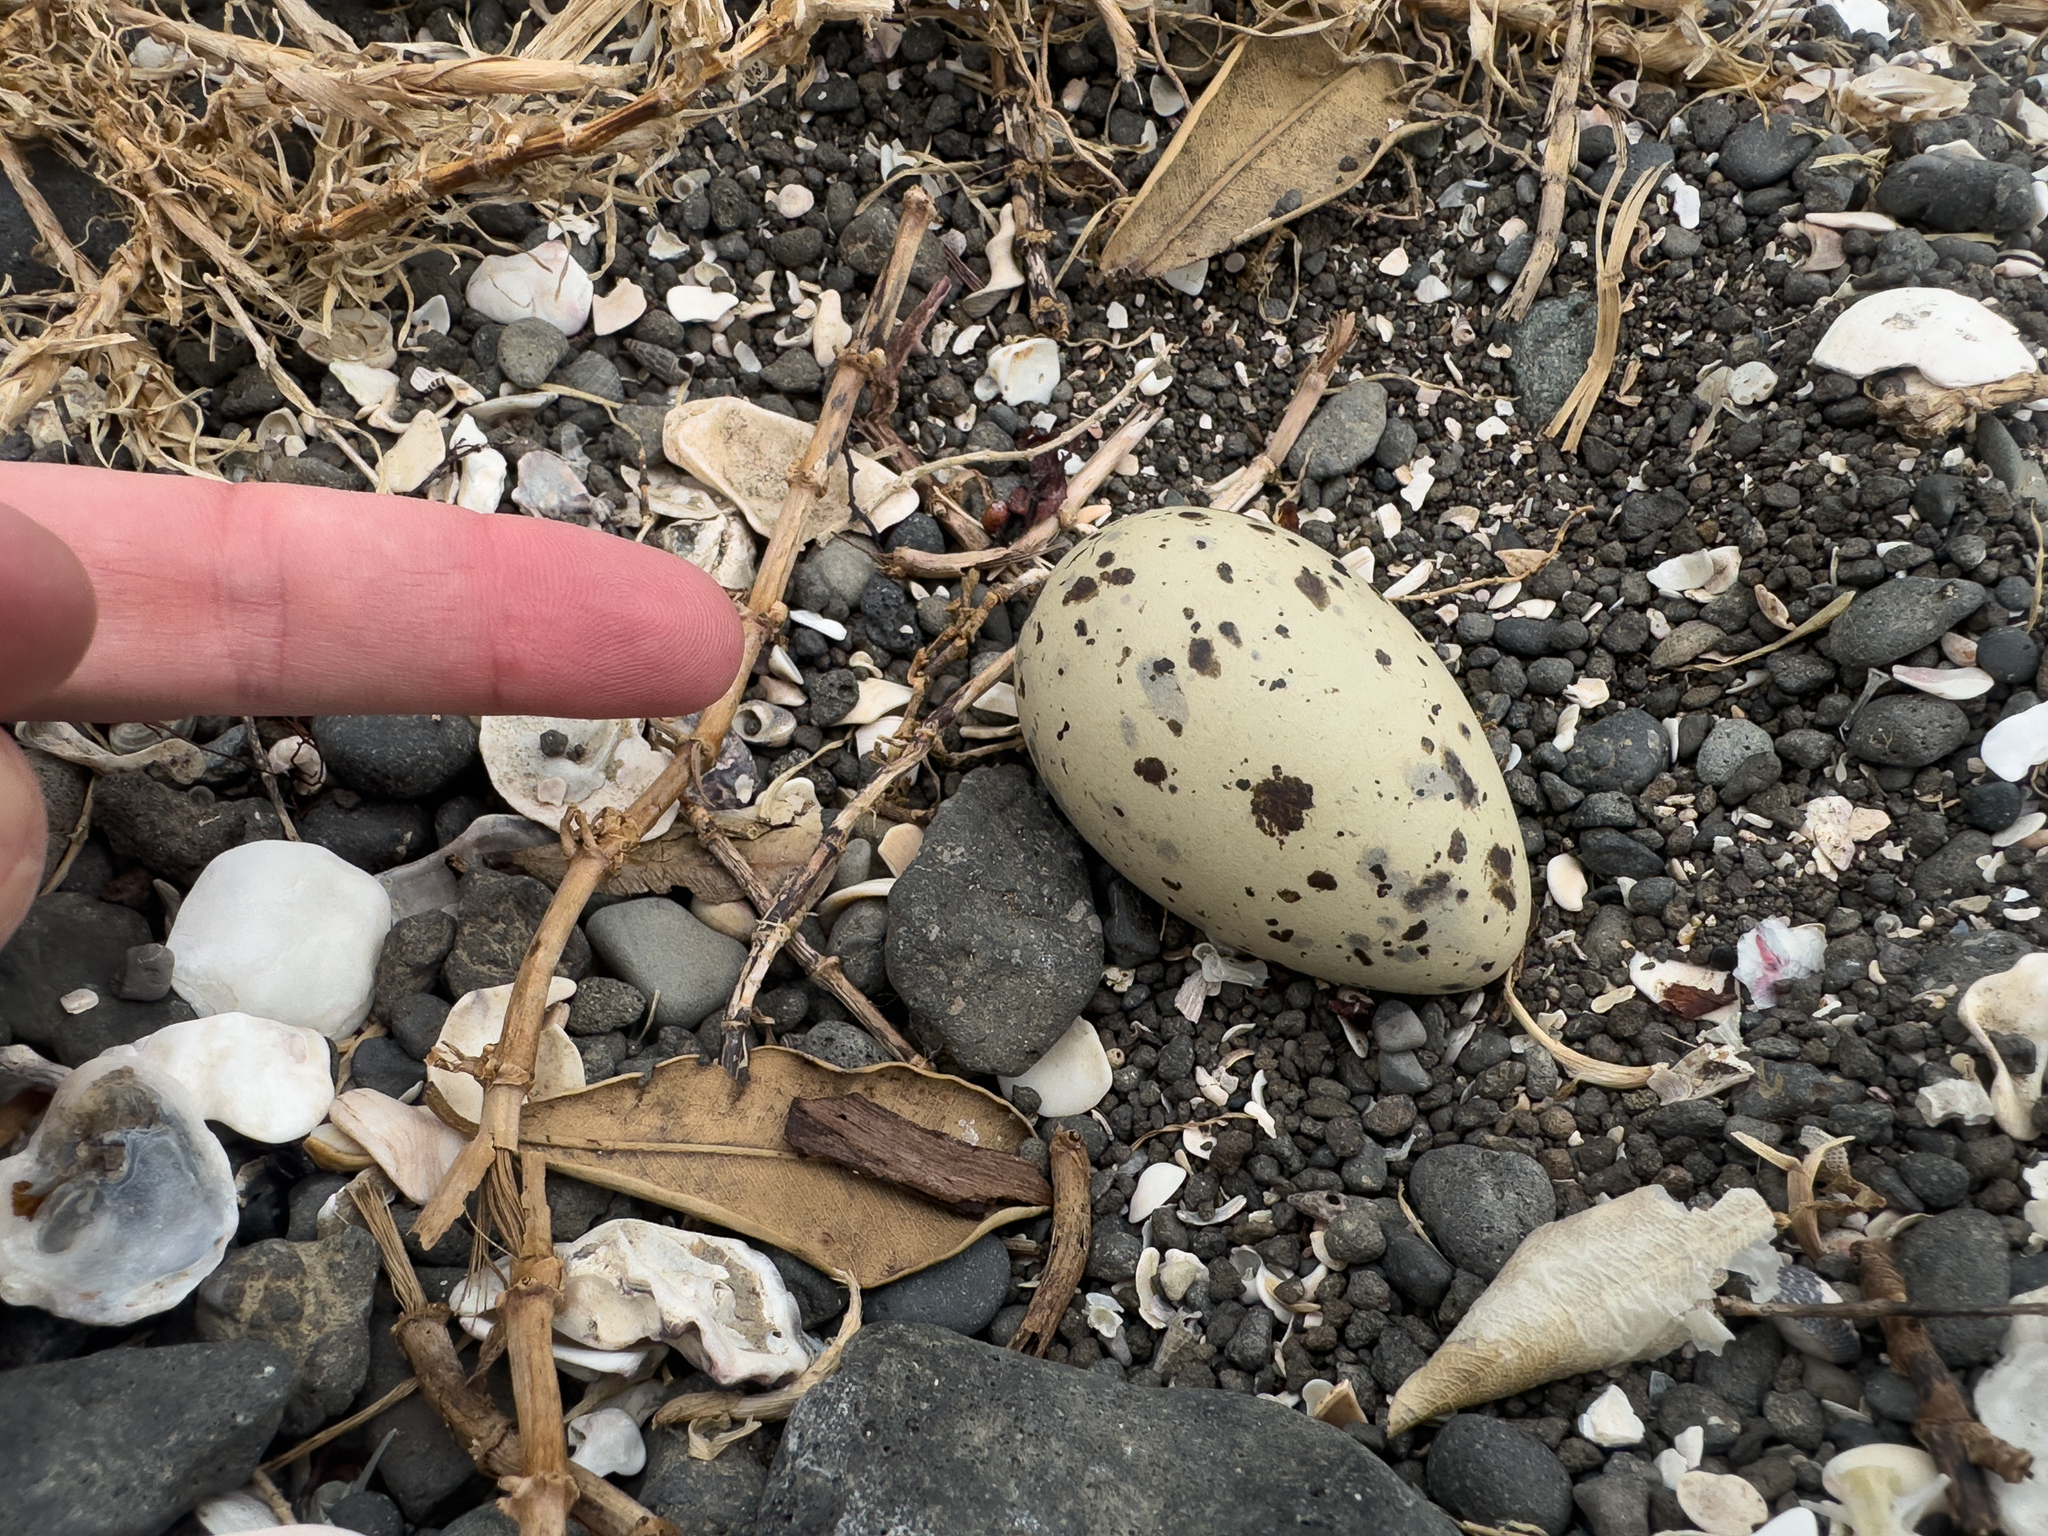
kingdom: Animalia
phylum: Chordata
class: Aves
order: Charadriiformes
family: Laridae
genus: Hydroprogne
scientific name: Hydroprogne caspia
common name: Caspian tern
